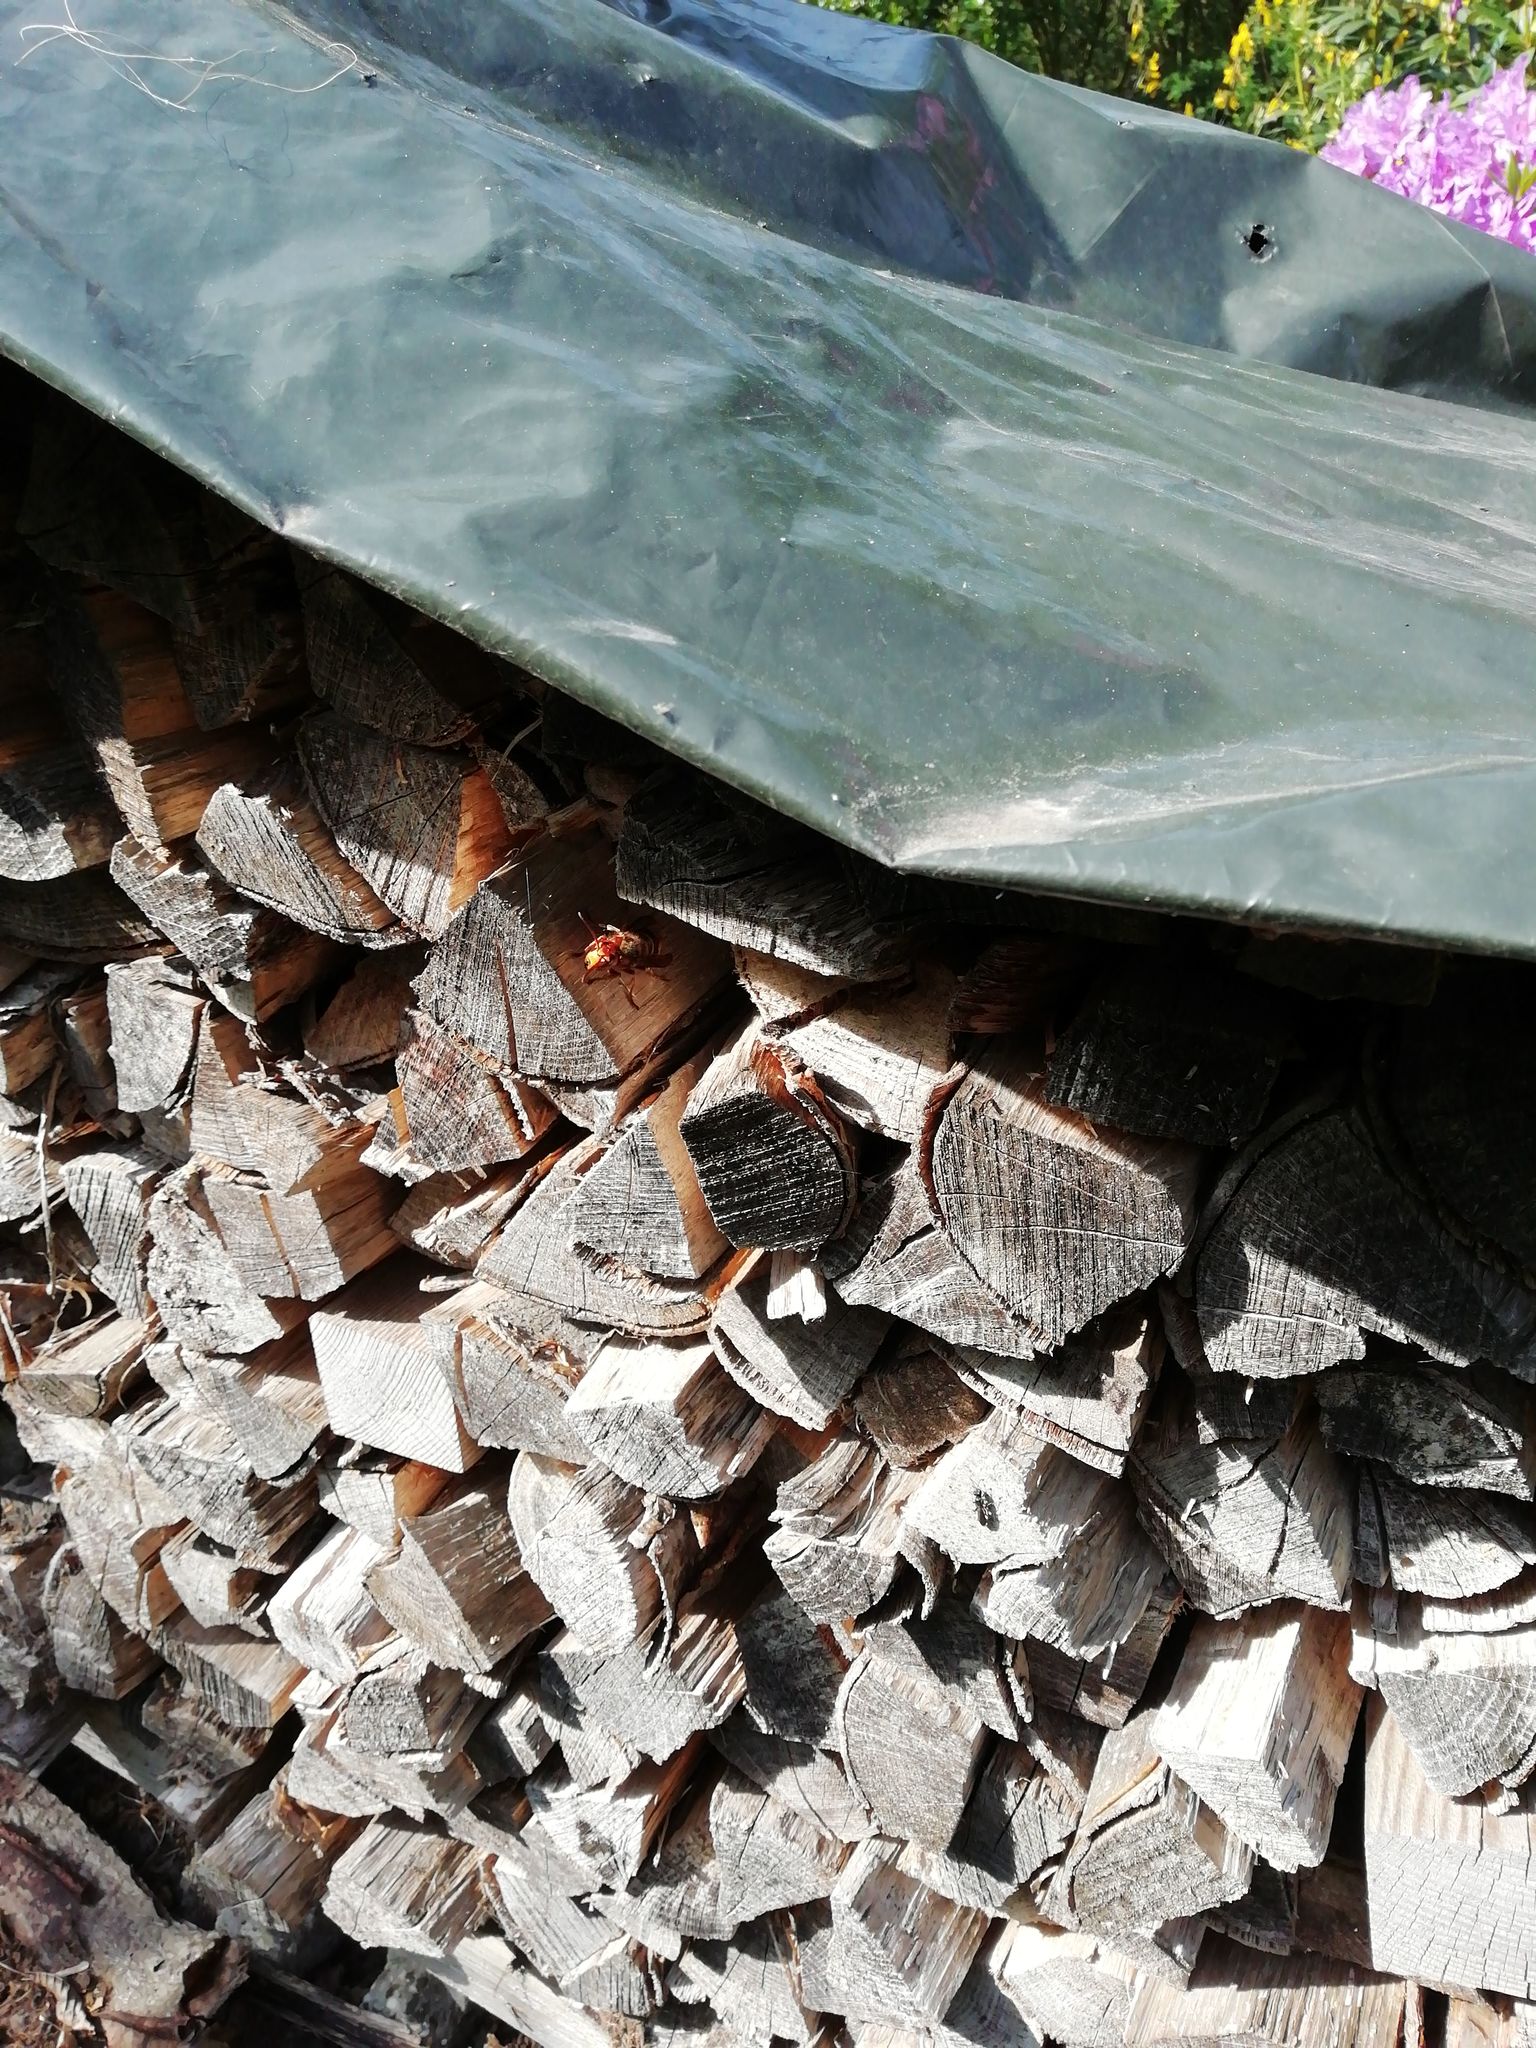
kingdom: Animalia
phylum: Arthropoda
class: Insecta
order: Hymenoptera
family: Vespidae
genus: Vespa
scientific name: Vespa crabro
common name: Hornet
